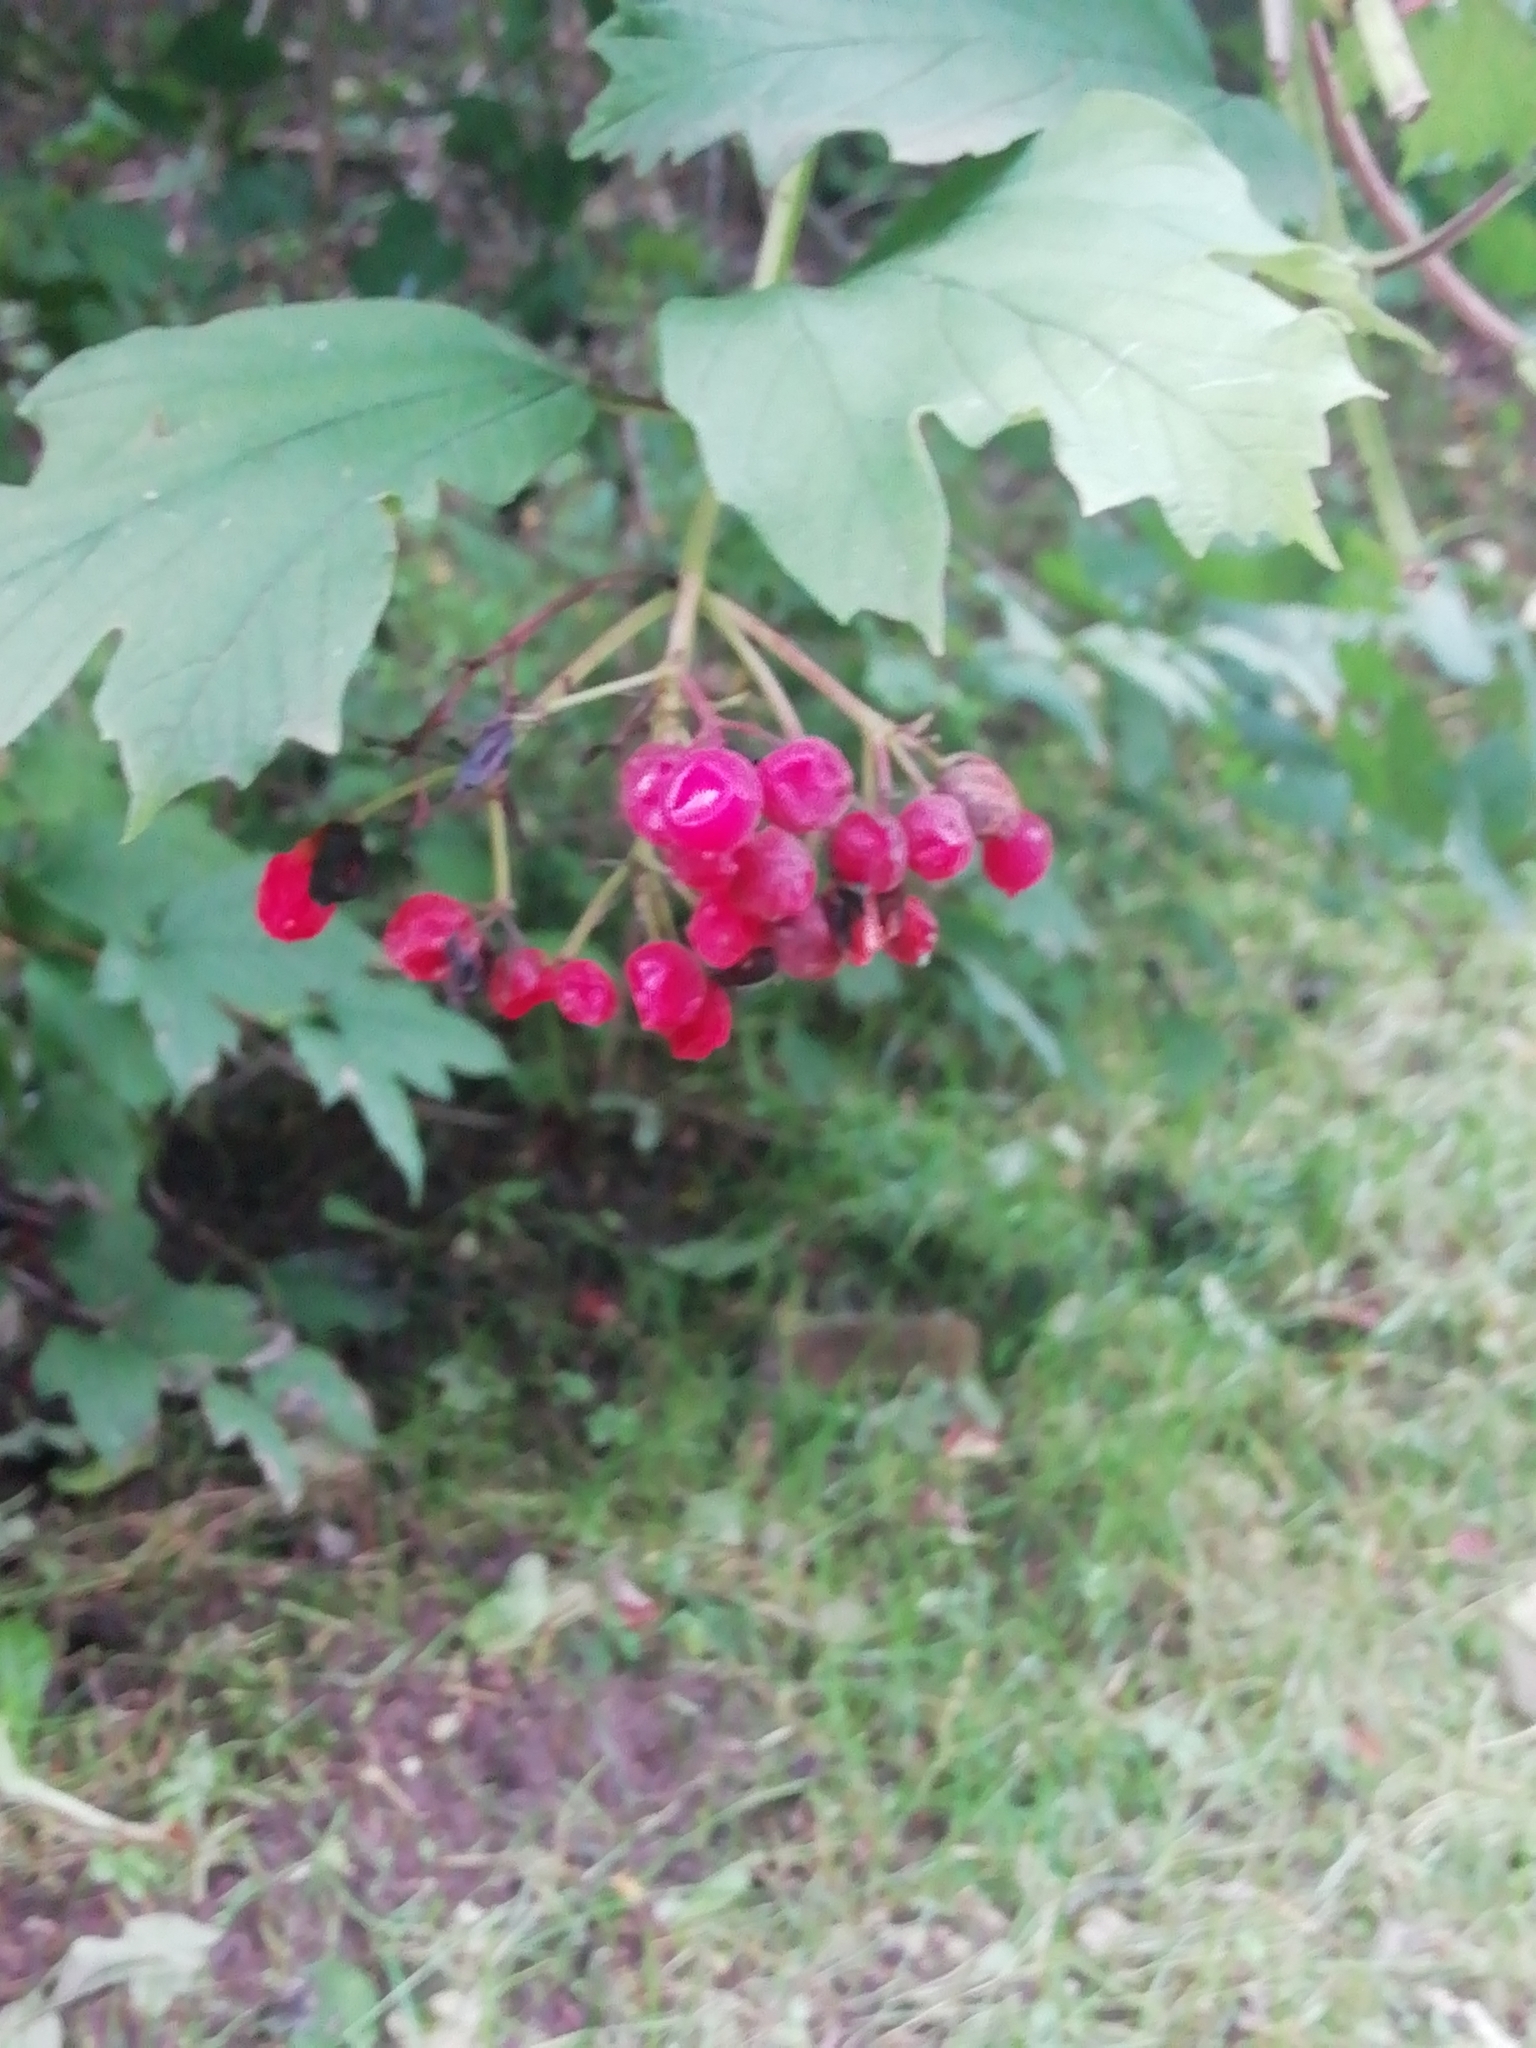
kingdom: Plantae
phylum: Tracheophyta
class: Magnoliopsida
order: Dipsacales
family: Viburnaceae
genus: Viburnum
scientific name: Viburnum opulus
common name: Guelder-rose
